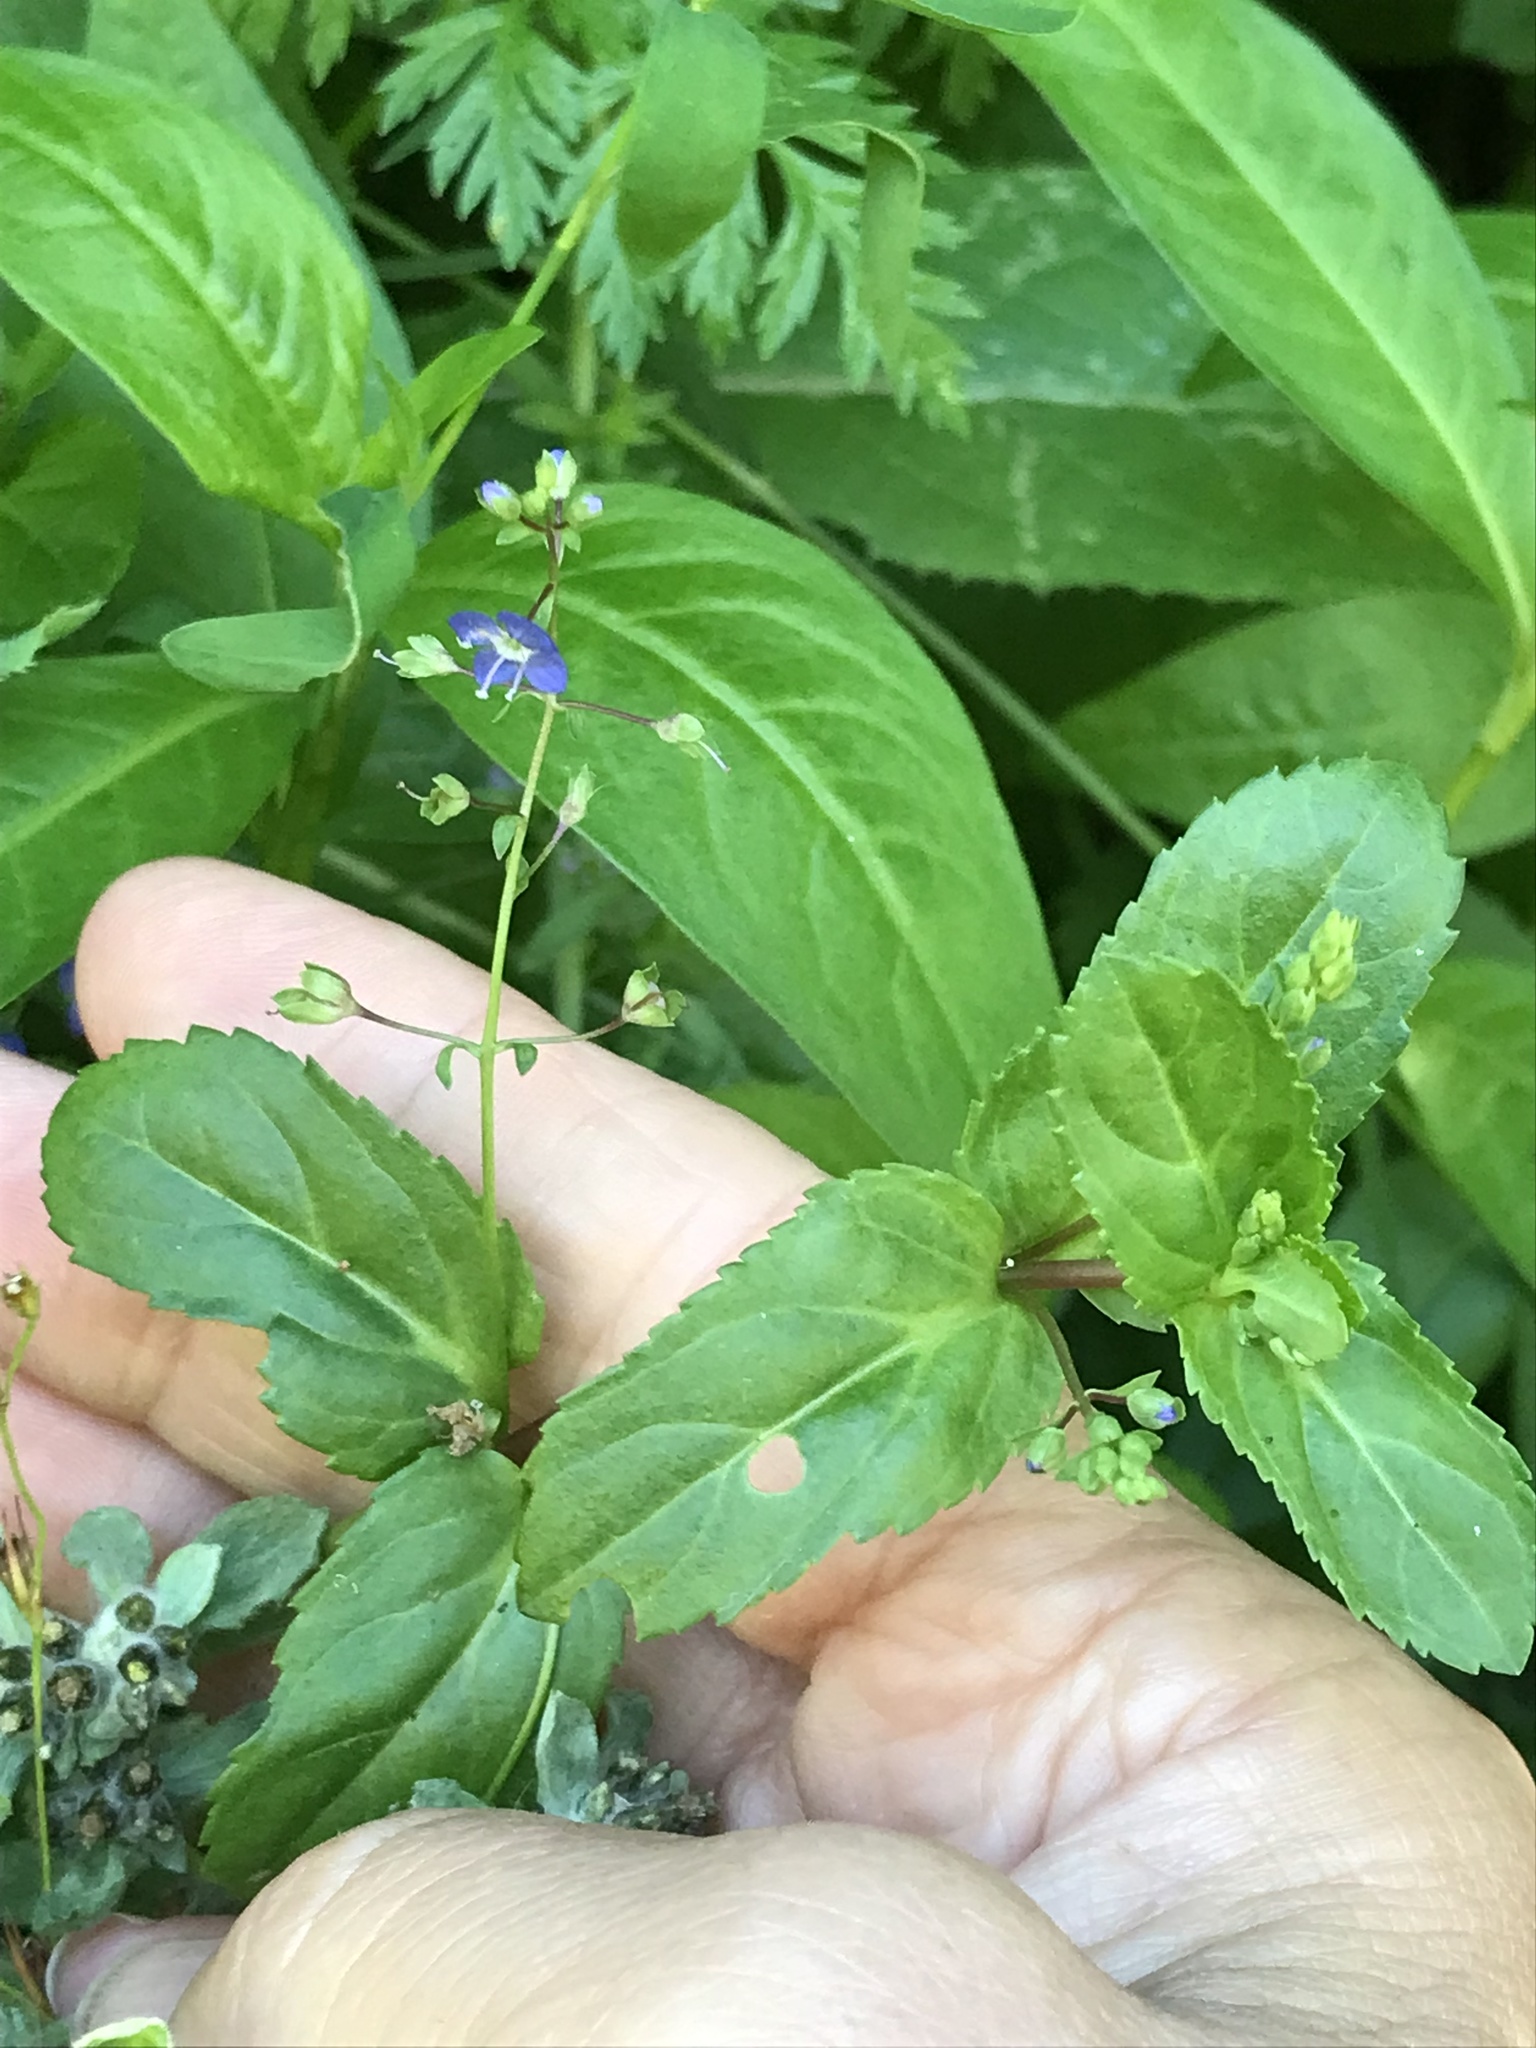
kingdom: Plantae
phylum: Tracheophyta
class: Magnoliopsida
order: Lamiales
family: Plantaginaceae
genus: Veronica
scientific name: Veronica americana
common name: American brooklime
